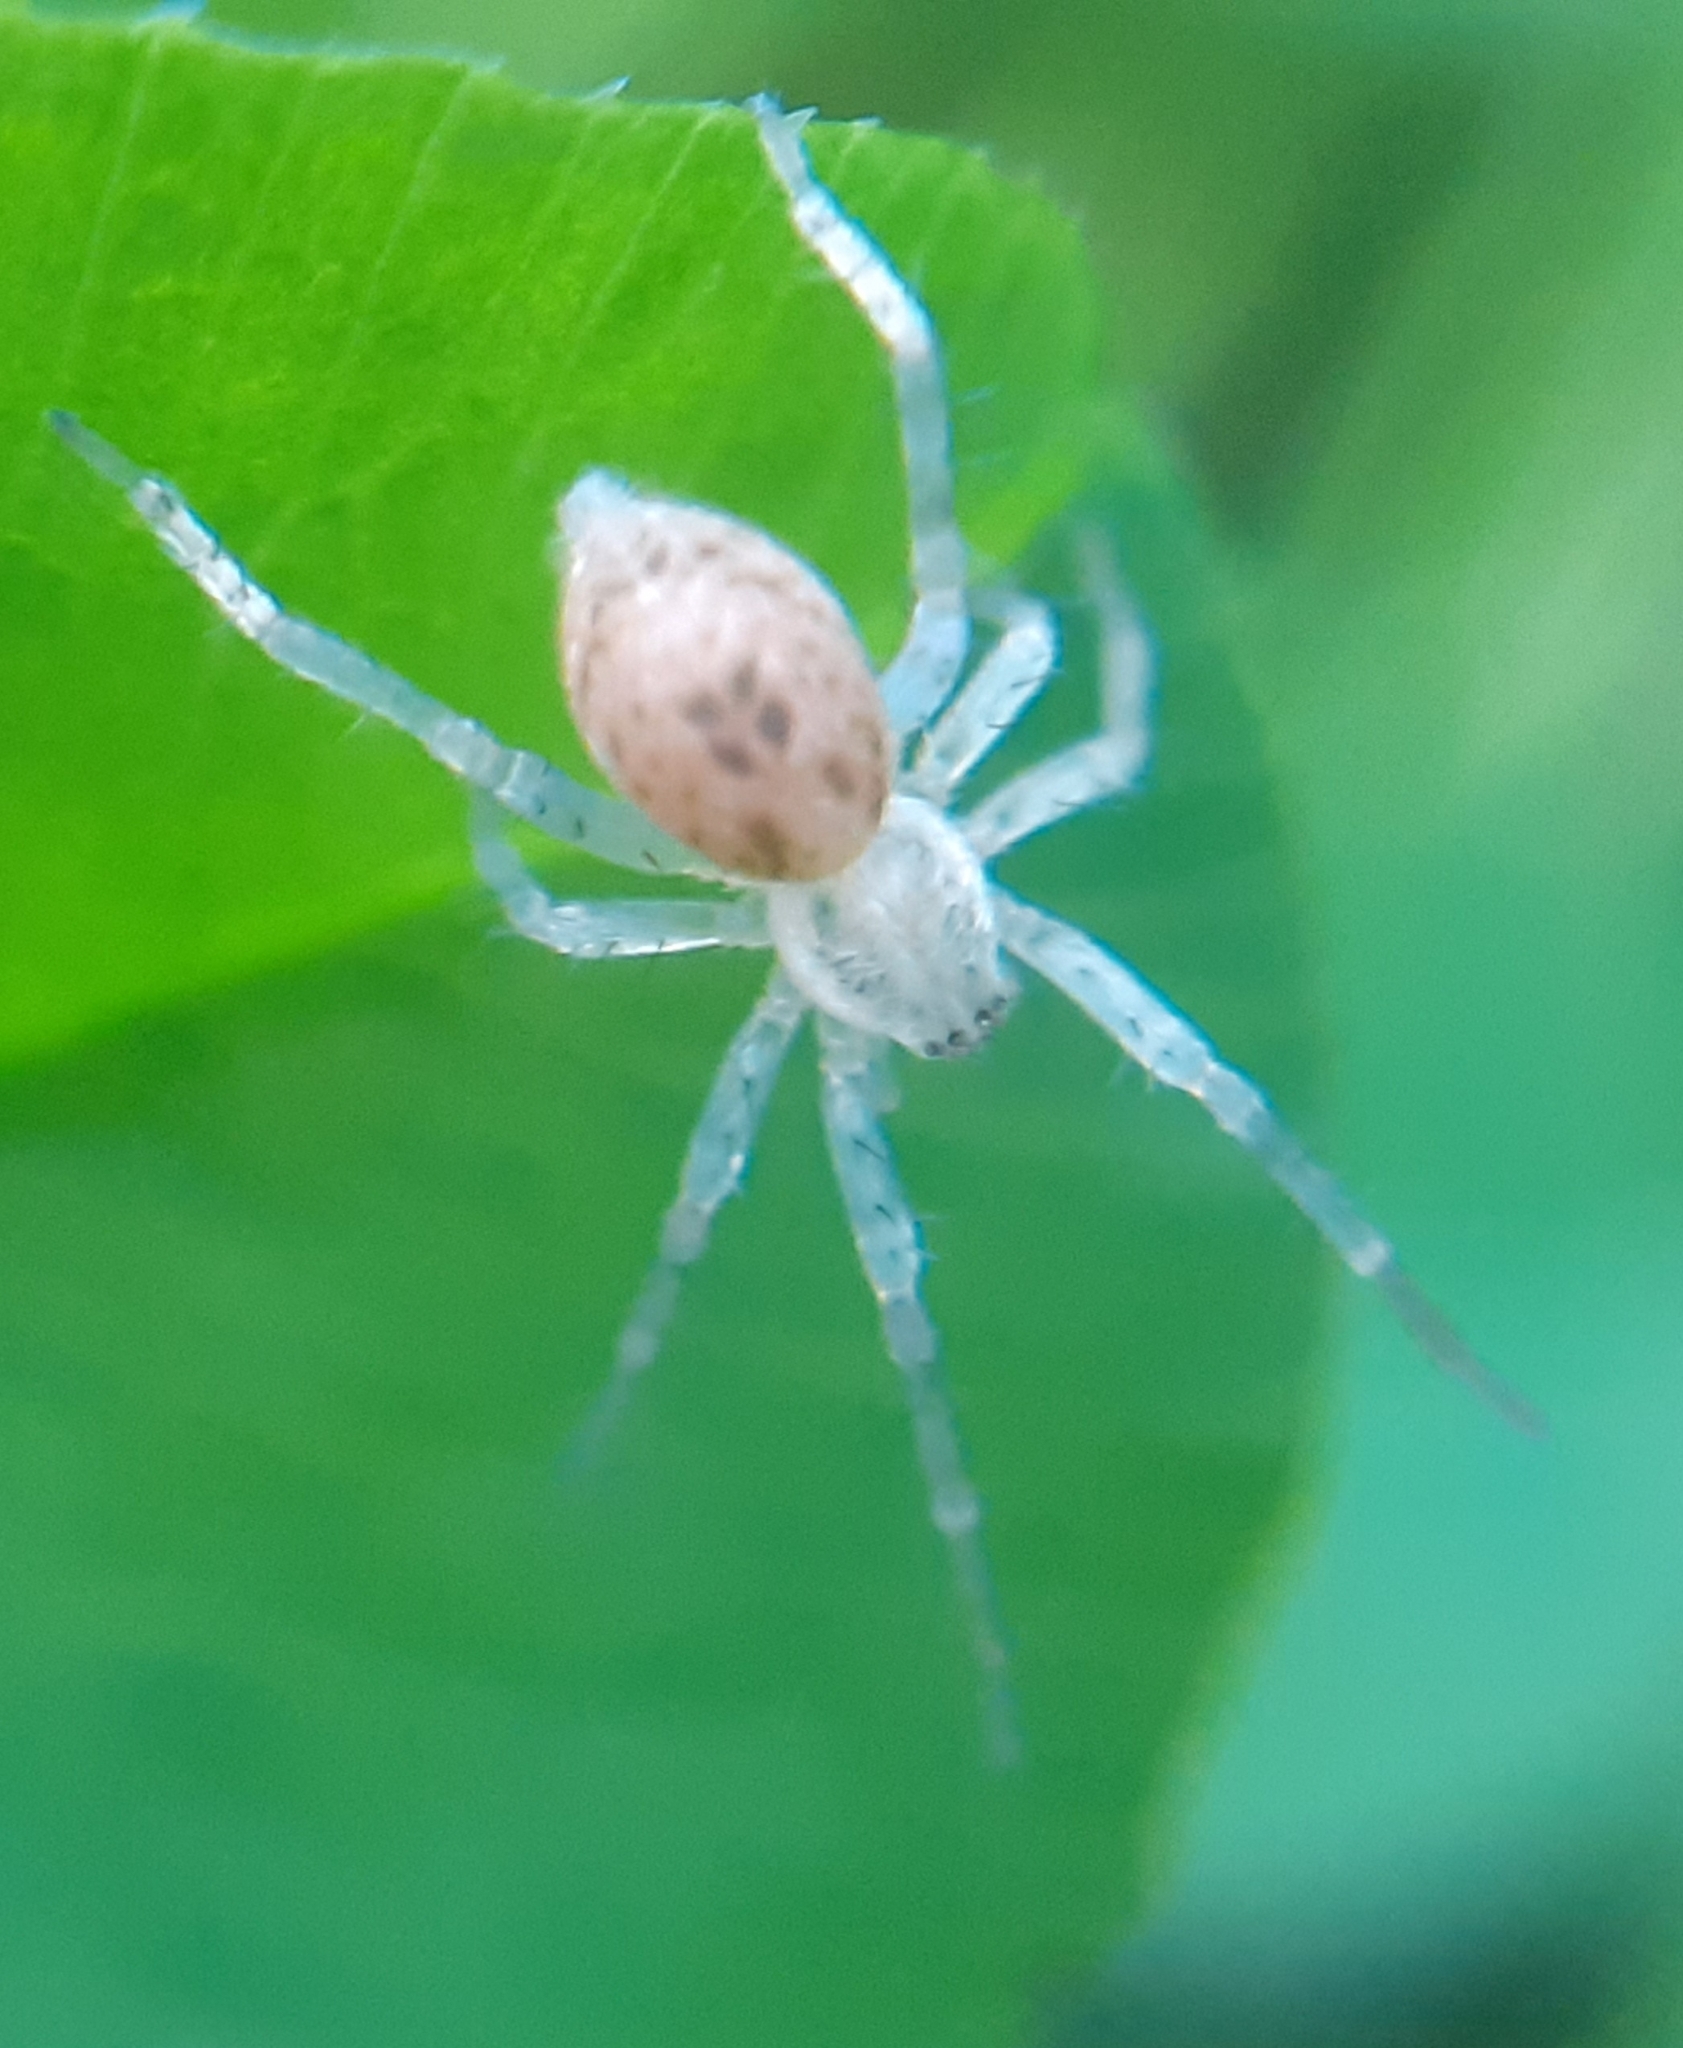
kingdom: Animalia
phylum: Arthropoda
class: Arachnida
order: Araneae
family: Anyphaenidae
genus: Anyphaena
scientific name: Anyphaena accentuata
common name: Buzzing spider
